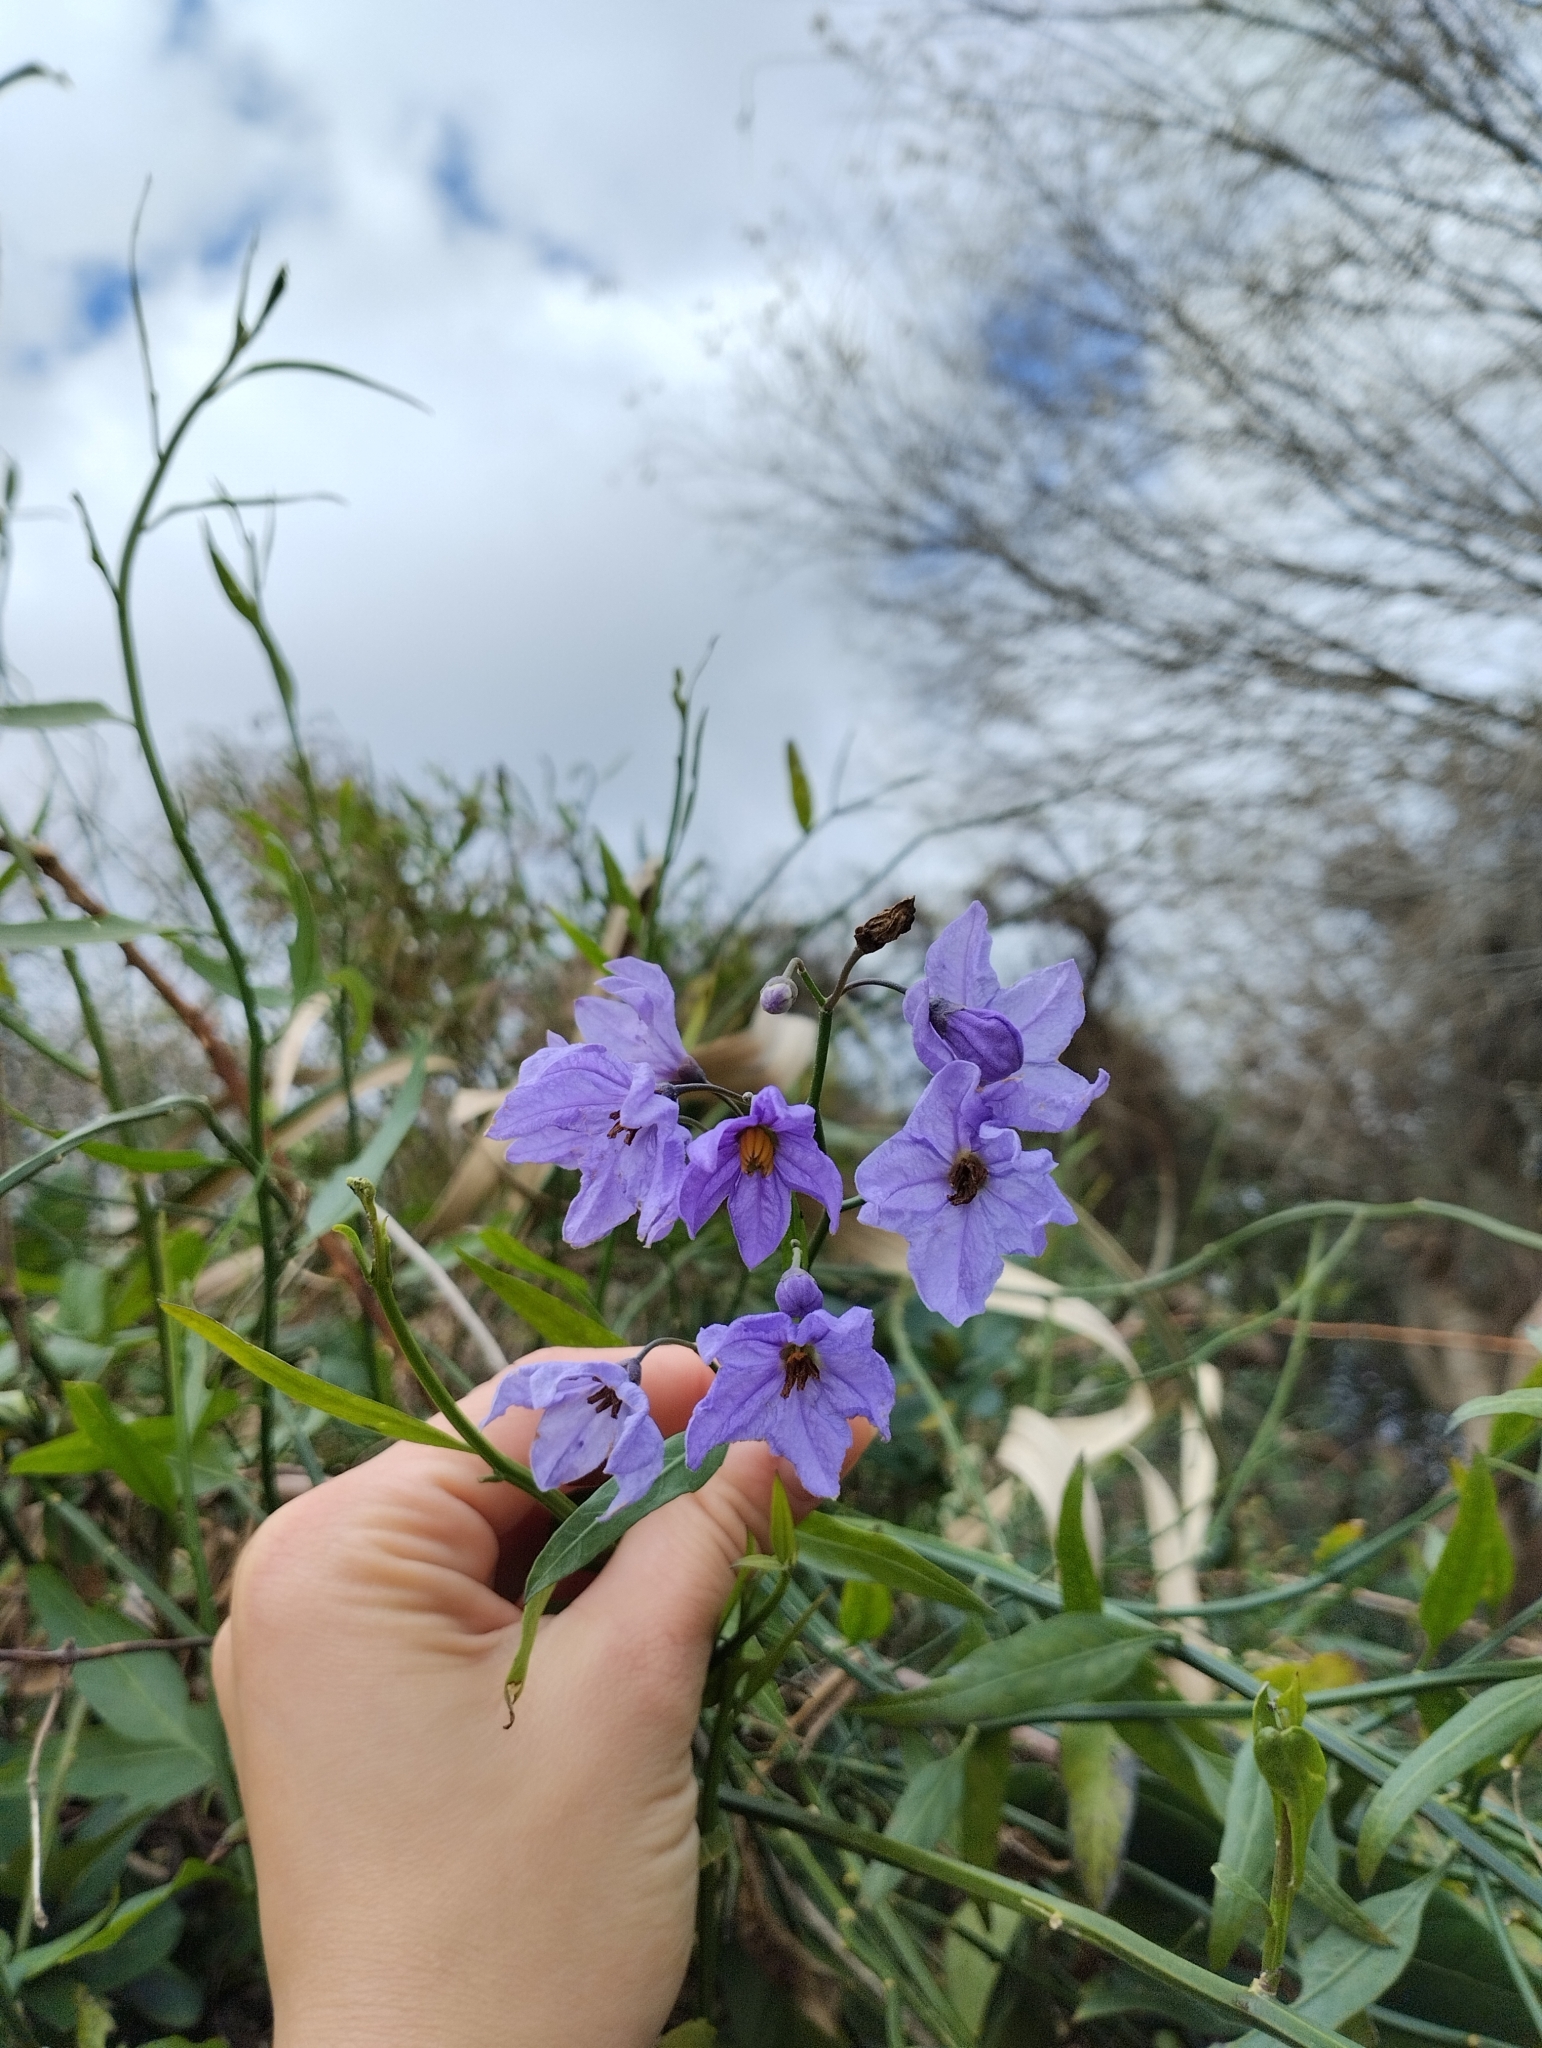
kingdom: Plantae
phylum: Tracheophyta
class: Magnoliopsida
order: Solanales
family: Solanaceae
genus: Solanum
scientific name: Solanum amygdalifolium
